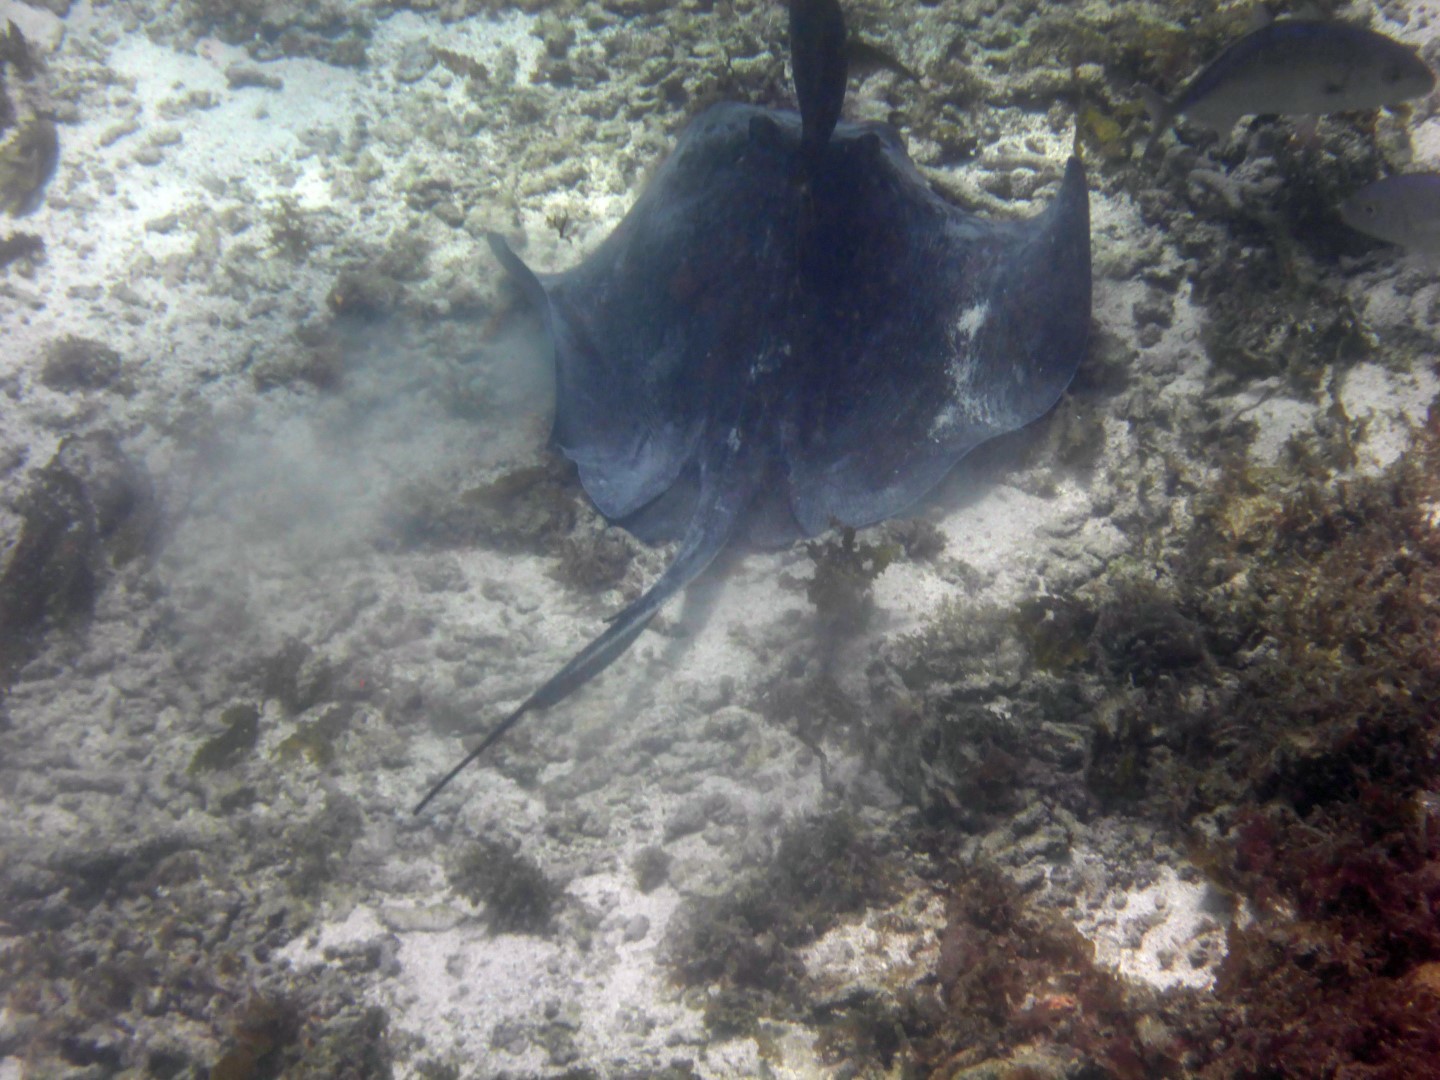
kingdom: Animalia
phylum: Chordata
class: Elasmobranchii
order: Myliobatiformes
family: Dasyatidae
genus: Hypanus
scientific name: Hypanus americanus
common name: Southern stingray
